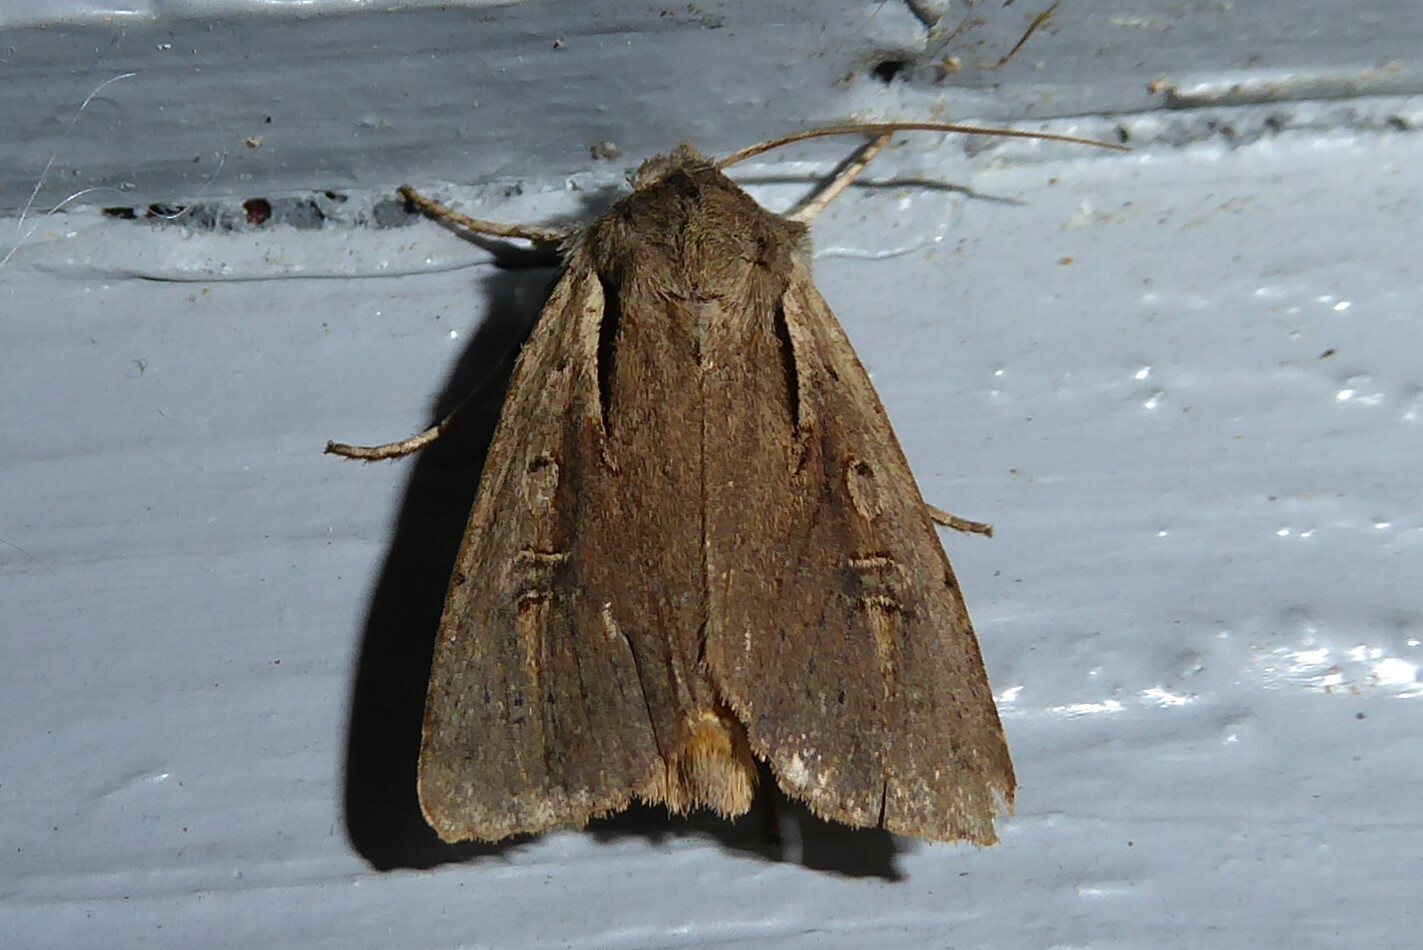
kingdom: Animalia
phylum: Arthropoda
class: Insecta
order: Lepidoptera
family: Noctuidae
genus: Ichneutica
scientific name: Ichneutica atristriga
